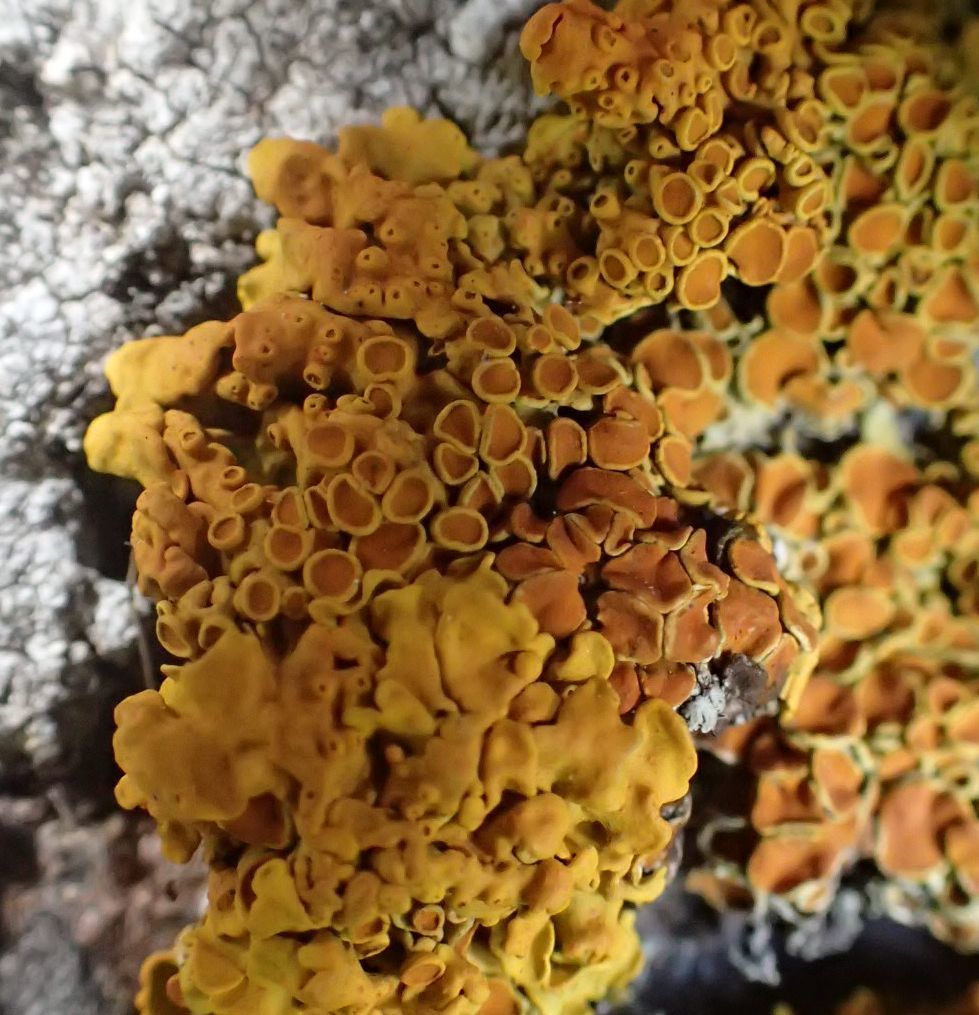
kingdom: Fungi
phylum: Ascomycota
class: Lecanoromycetes
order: Teloschistales
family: Teloschistaceae
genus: Xanthoria
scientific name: Xanthoria parietina
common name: Common orange lichen
